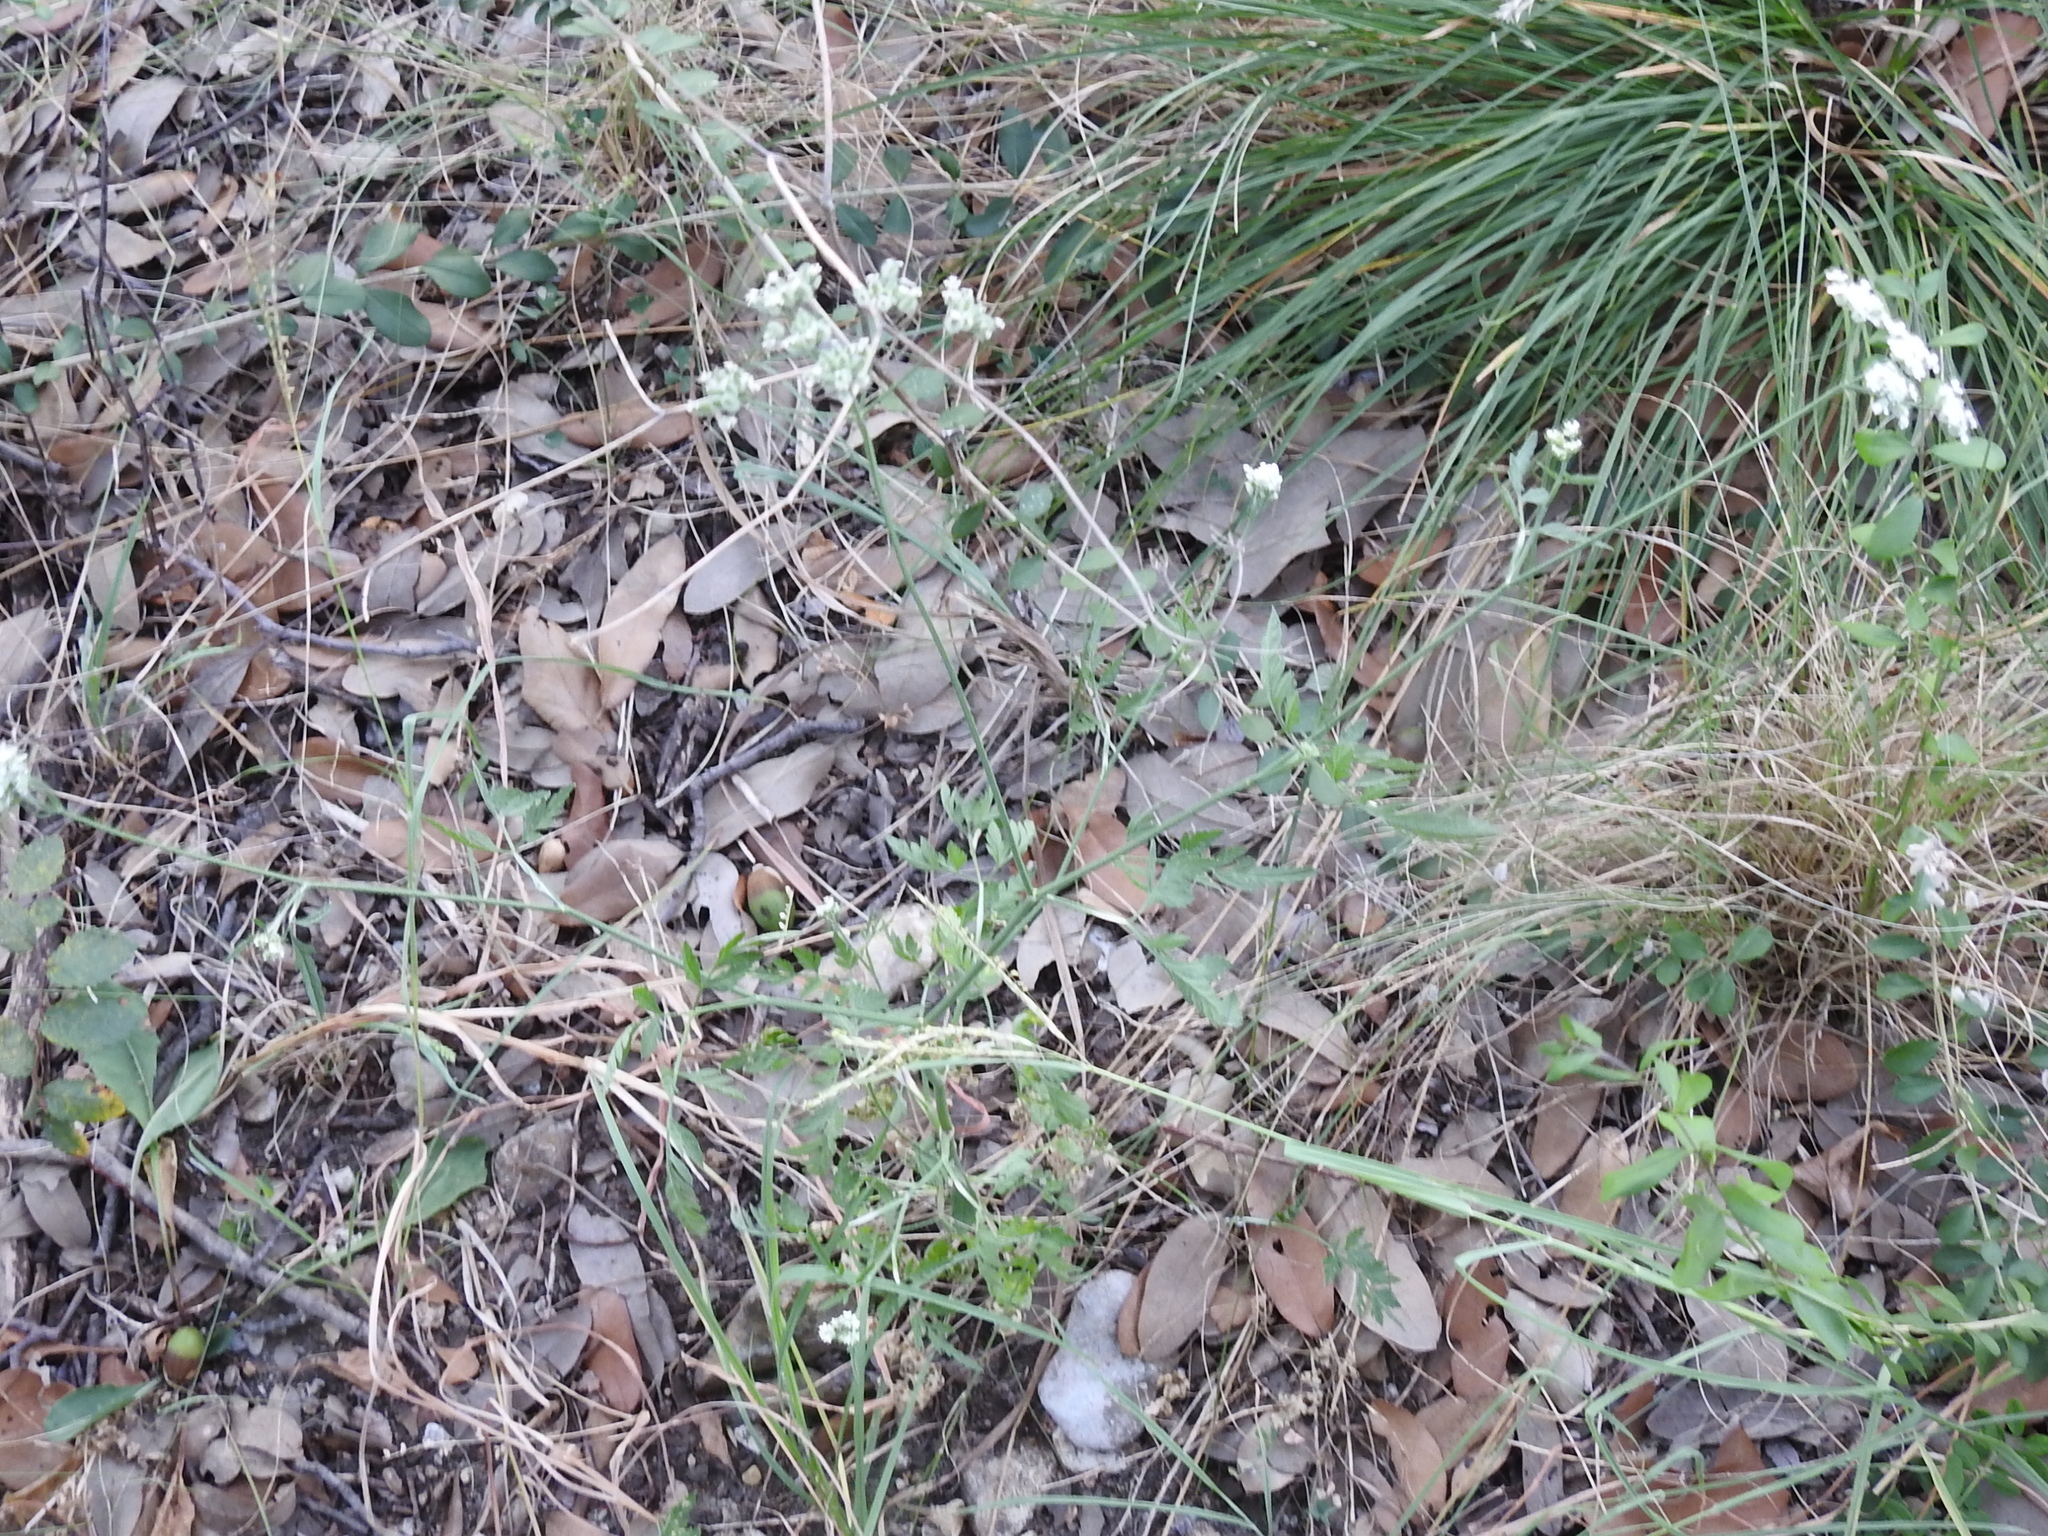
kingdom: Plantae
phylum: Tracheophyta
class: Magnoliopsida
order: Apiales
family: Apiaceae
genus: Torilis
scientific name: Torilis arvensis
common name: Spreading hedge-parsley
